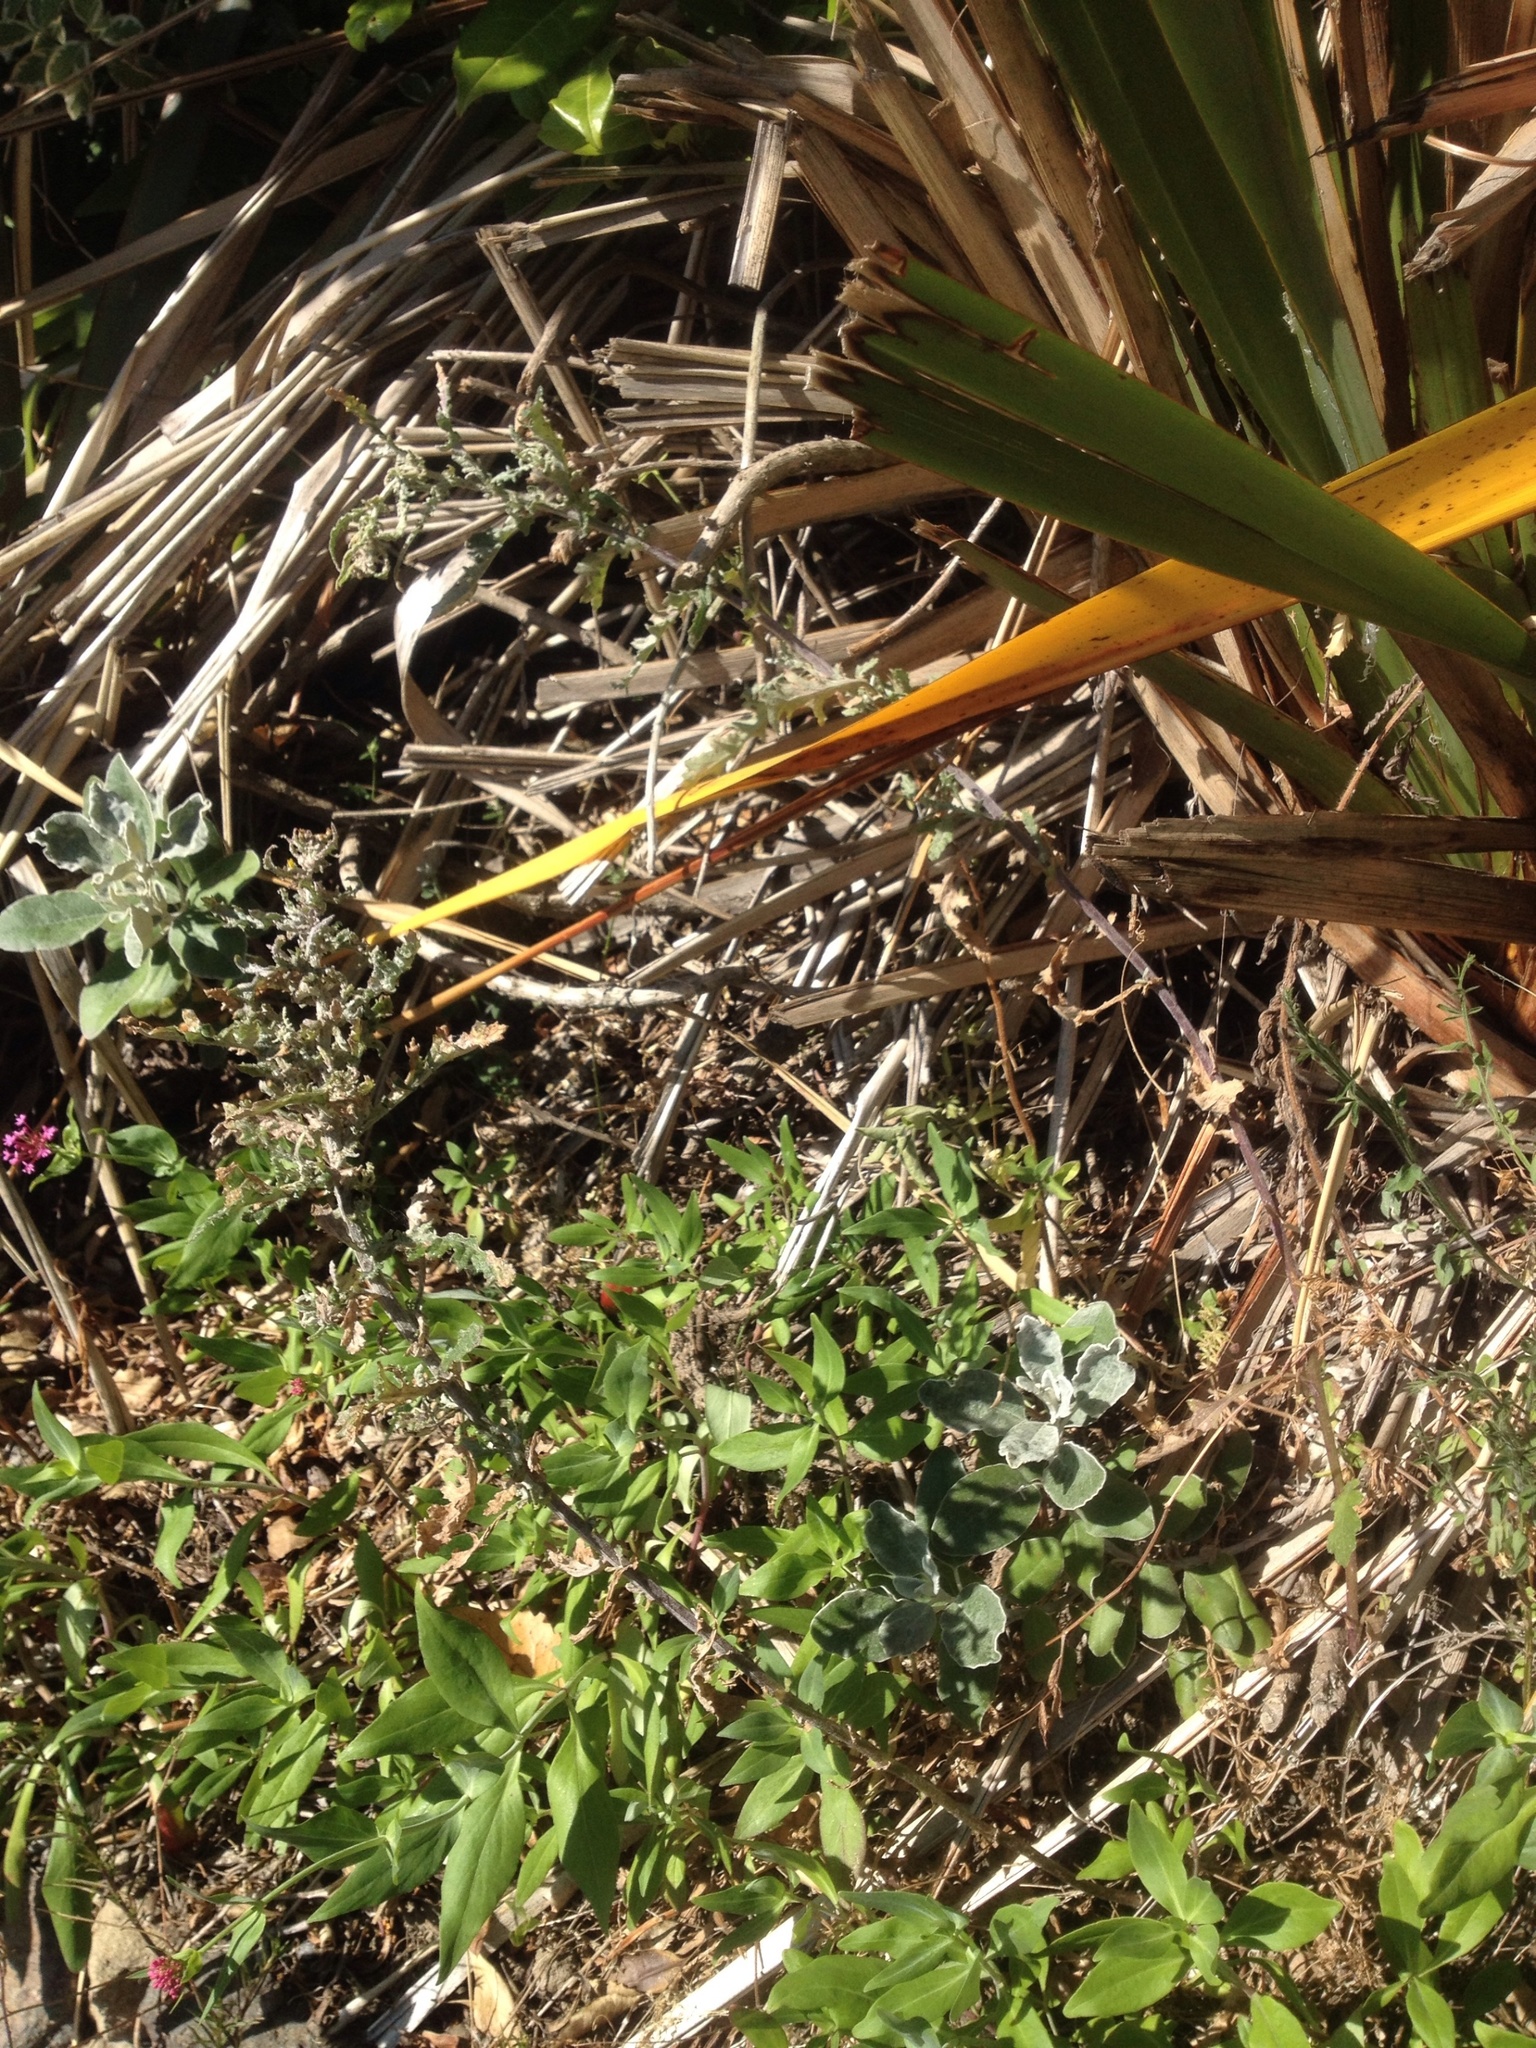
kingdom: Plantae
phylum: Tracheophyta
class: Magnoliopsida
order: Asterales
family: Asteraceae
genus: Senecio
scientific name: Senecio glomeratus
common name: Cutleaf burnweed
